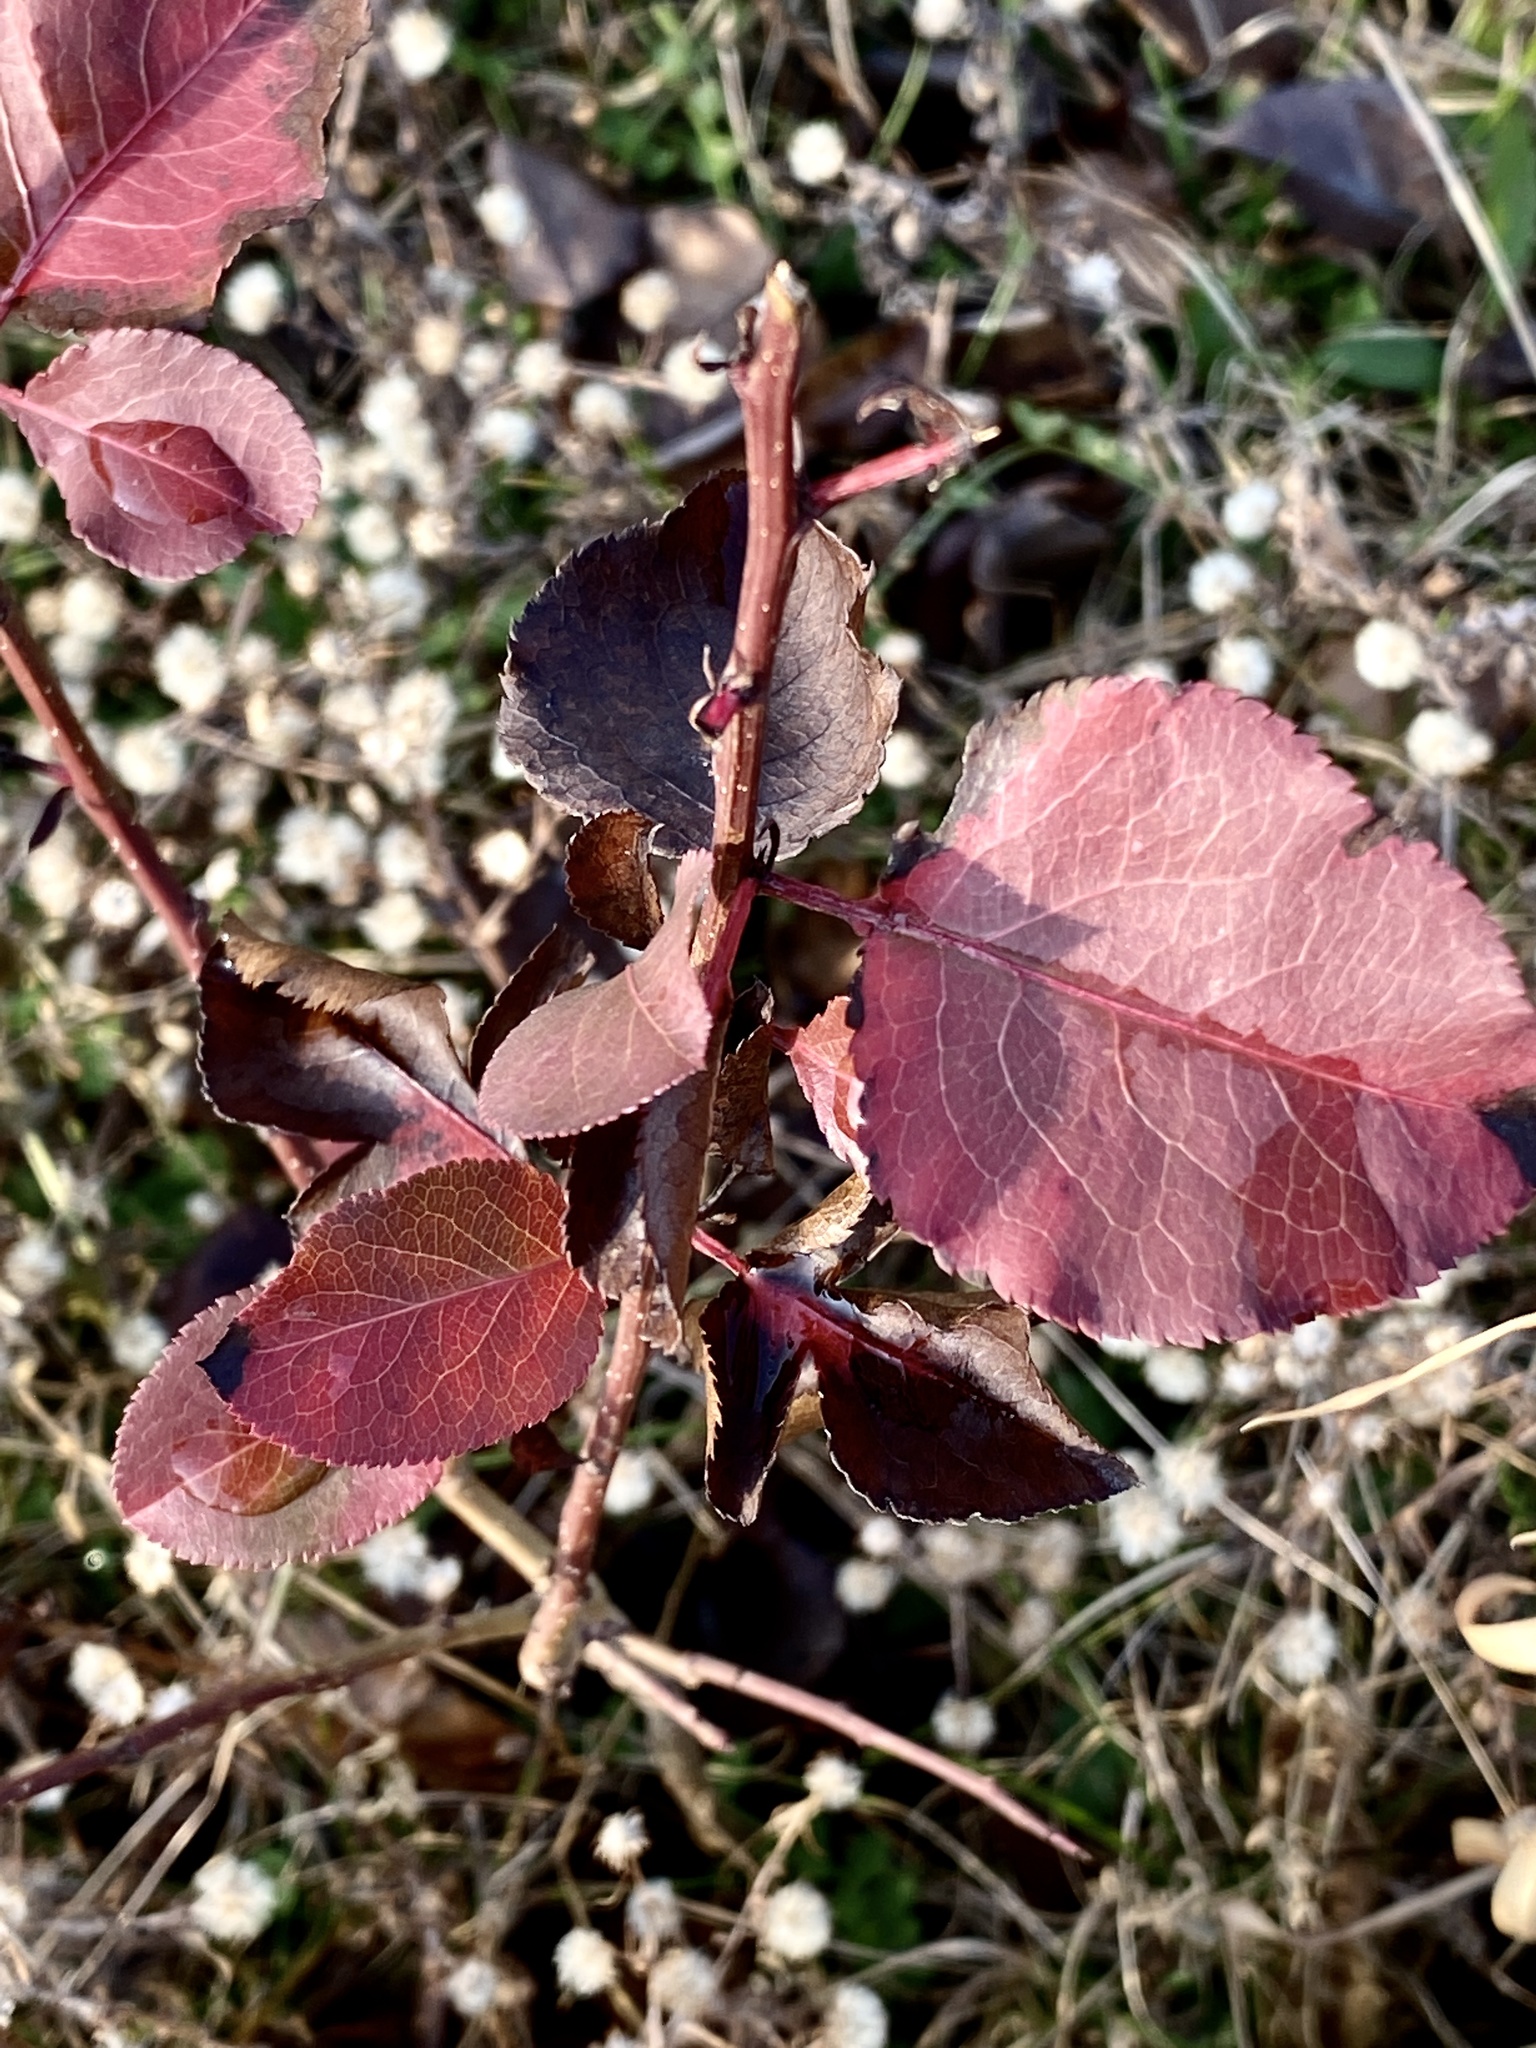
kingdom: Plantae
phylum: Tracheophyta
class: Magnoliopsida
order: Rosales
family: Rosaceae
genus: Pyrus
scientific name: Pyrus calleryana
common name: Callery pear
